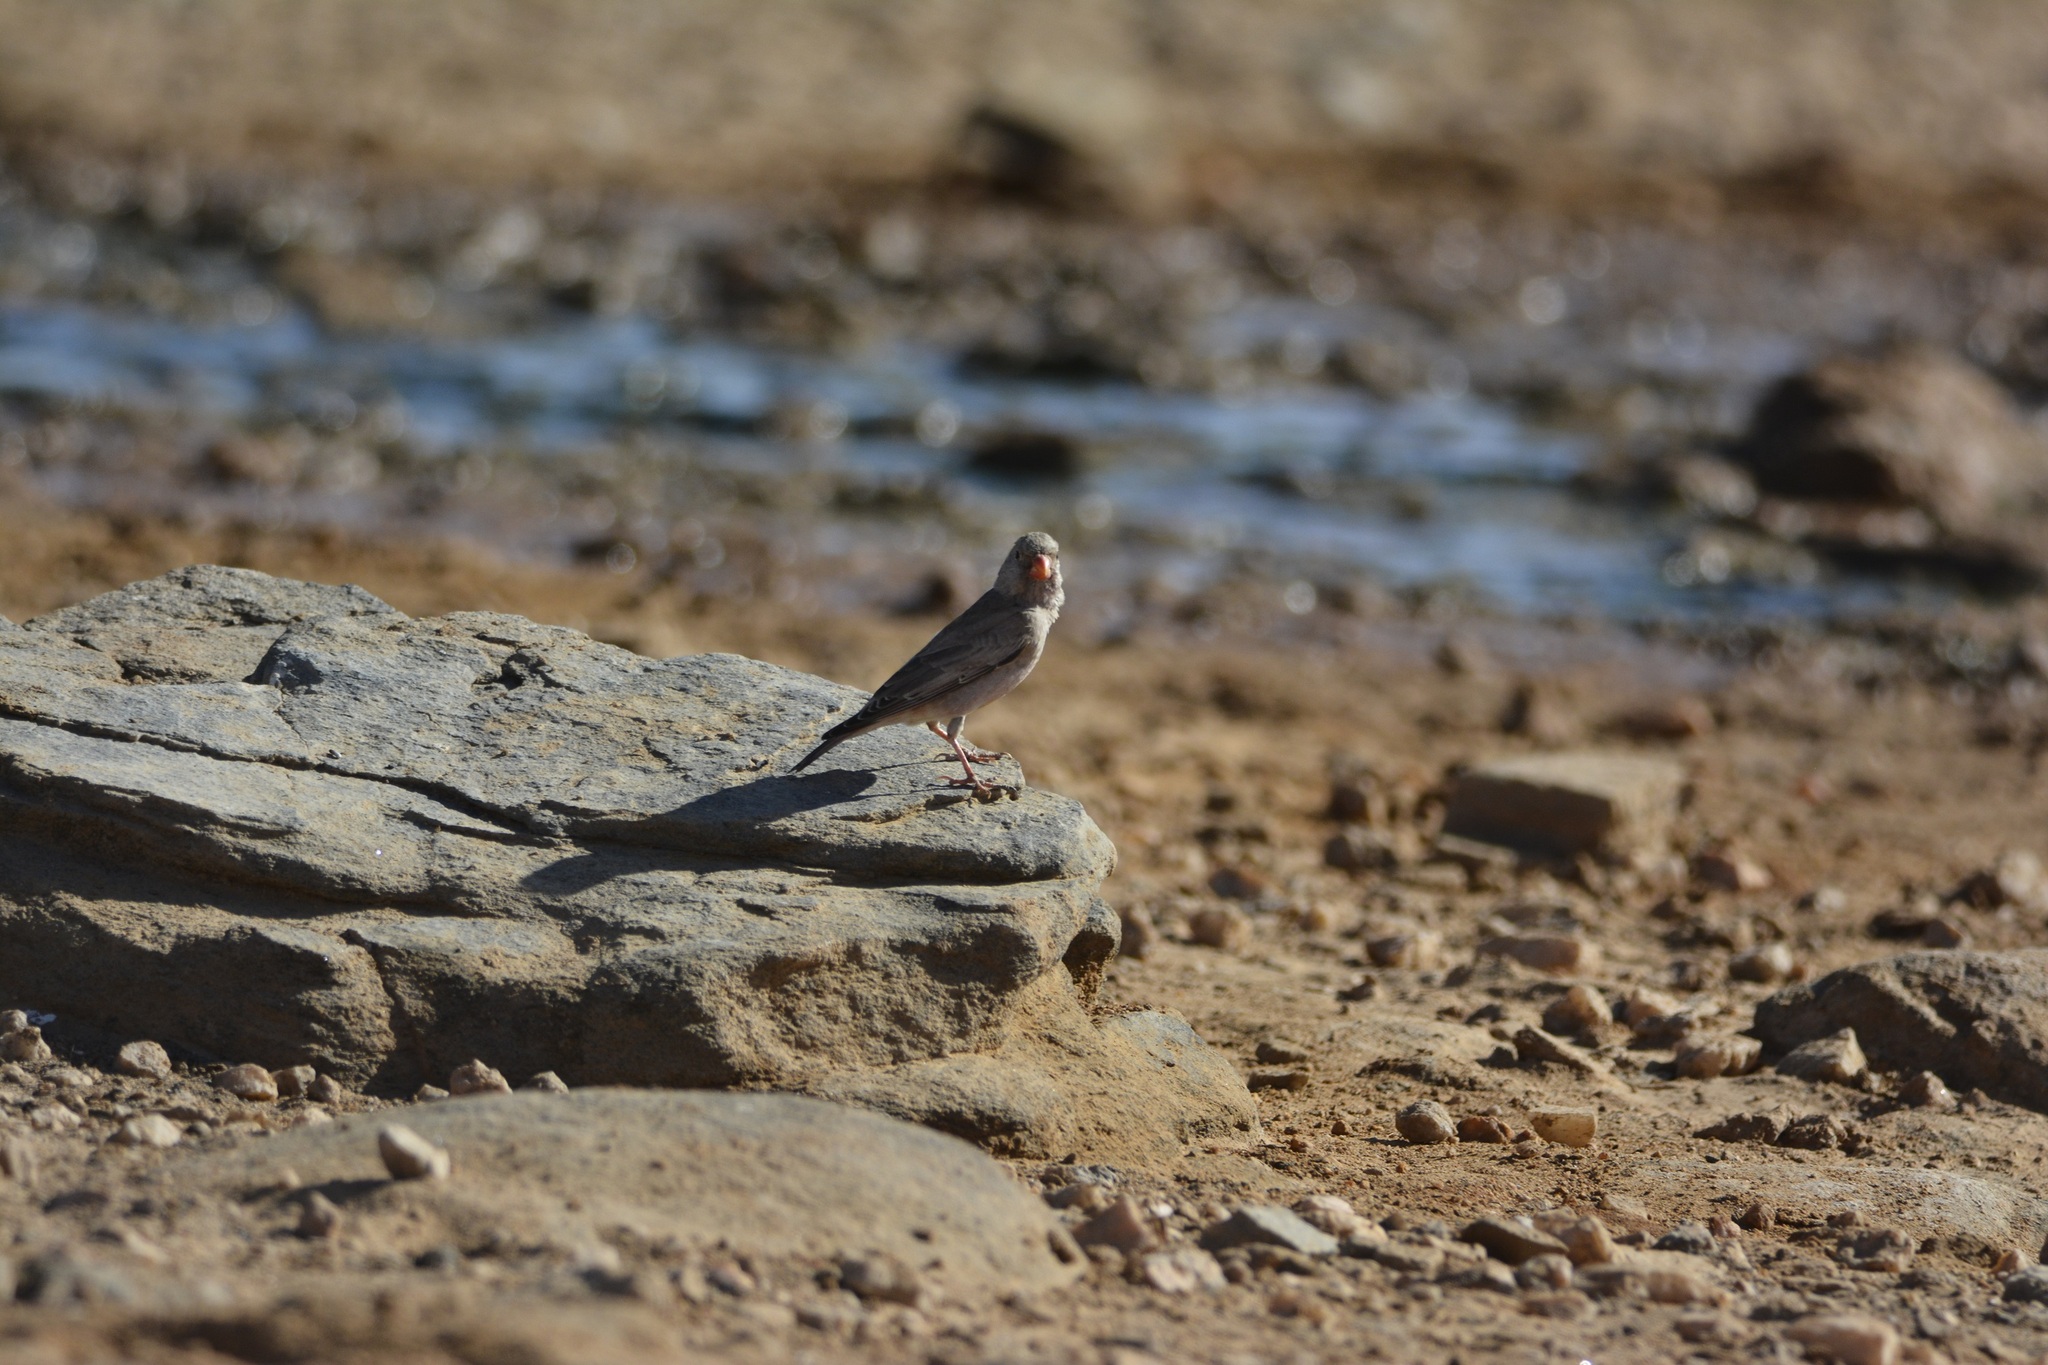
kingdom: Animalia
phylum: Chordata
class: Aves
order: Passeriformes
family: Fringillidae
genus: Bucanetes
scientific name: Bucanetes githagineus
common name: Trumpeter finch
